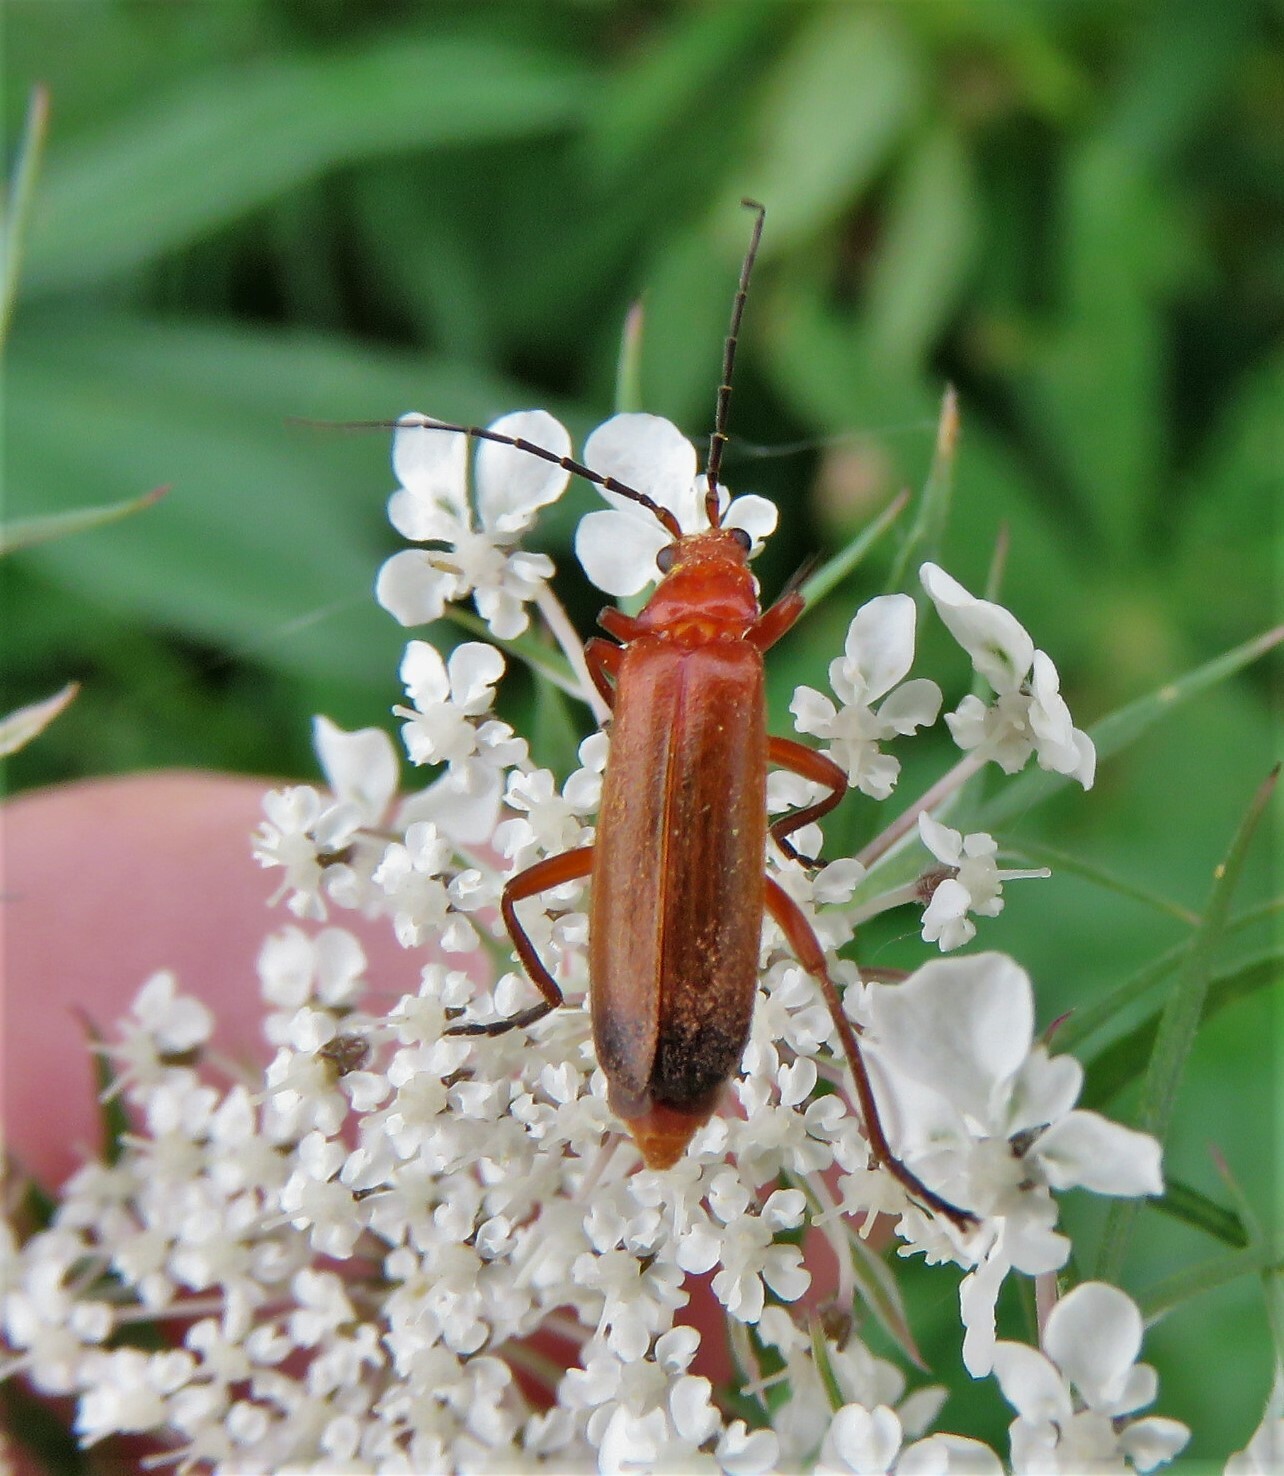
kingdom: Animalia
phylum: Arthropoda
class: Insecta
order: Coleoptera
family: Cantharidae
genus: Rhagonycha
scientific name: Rhagonycha fulva
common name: Common red soldier beetle
